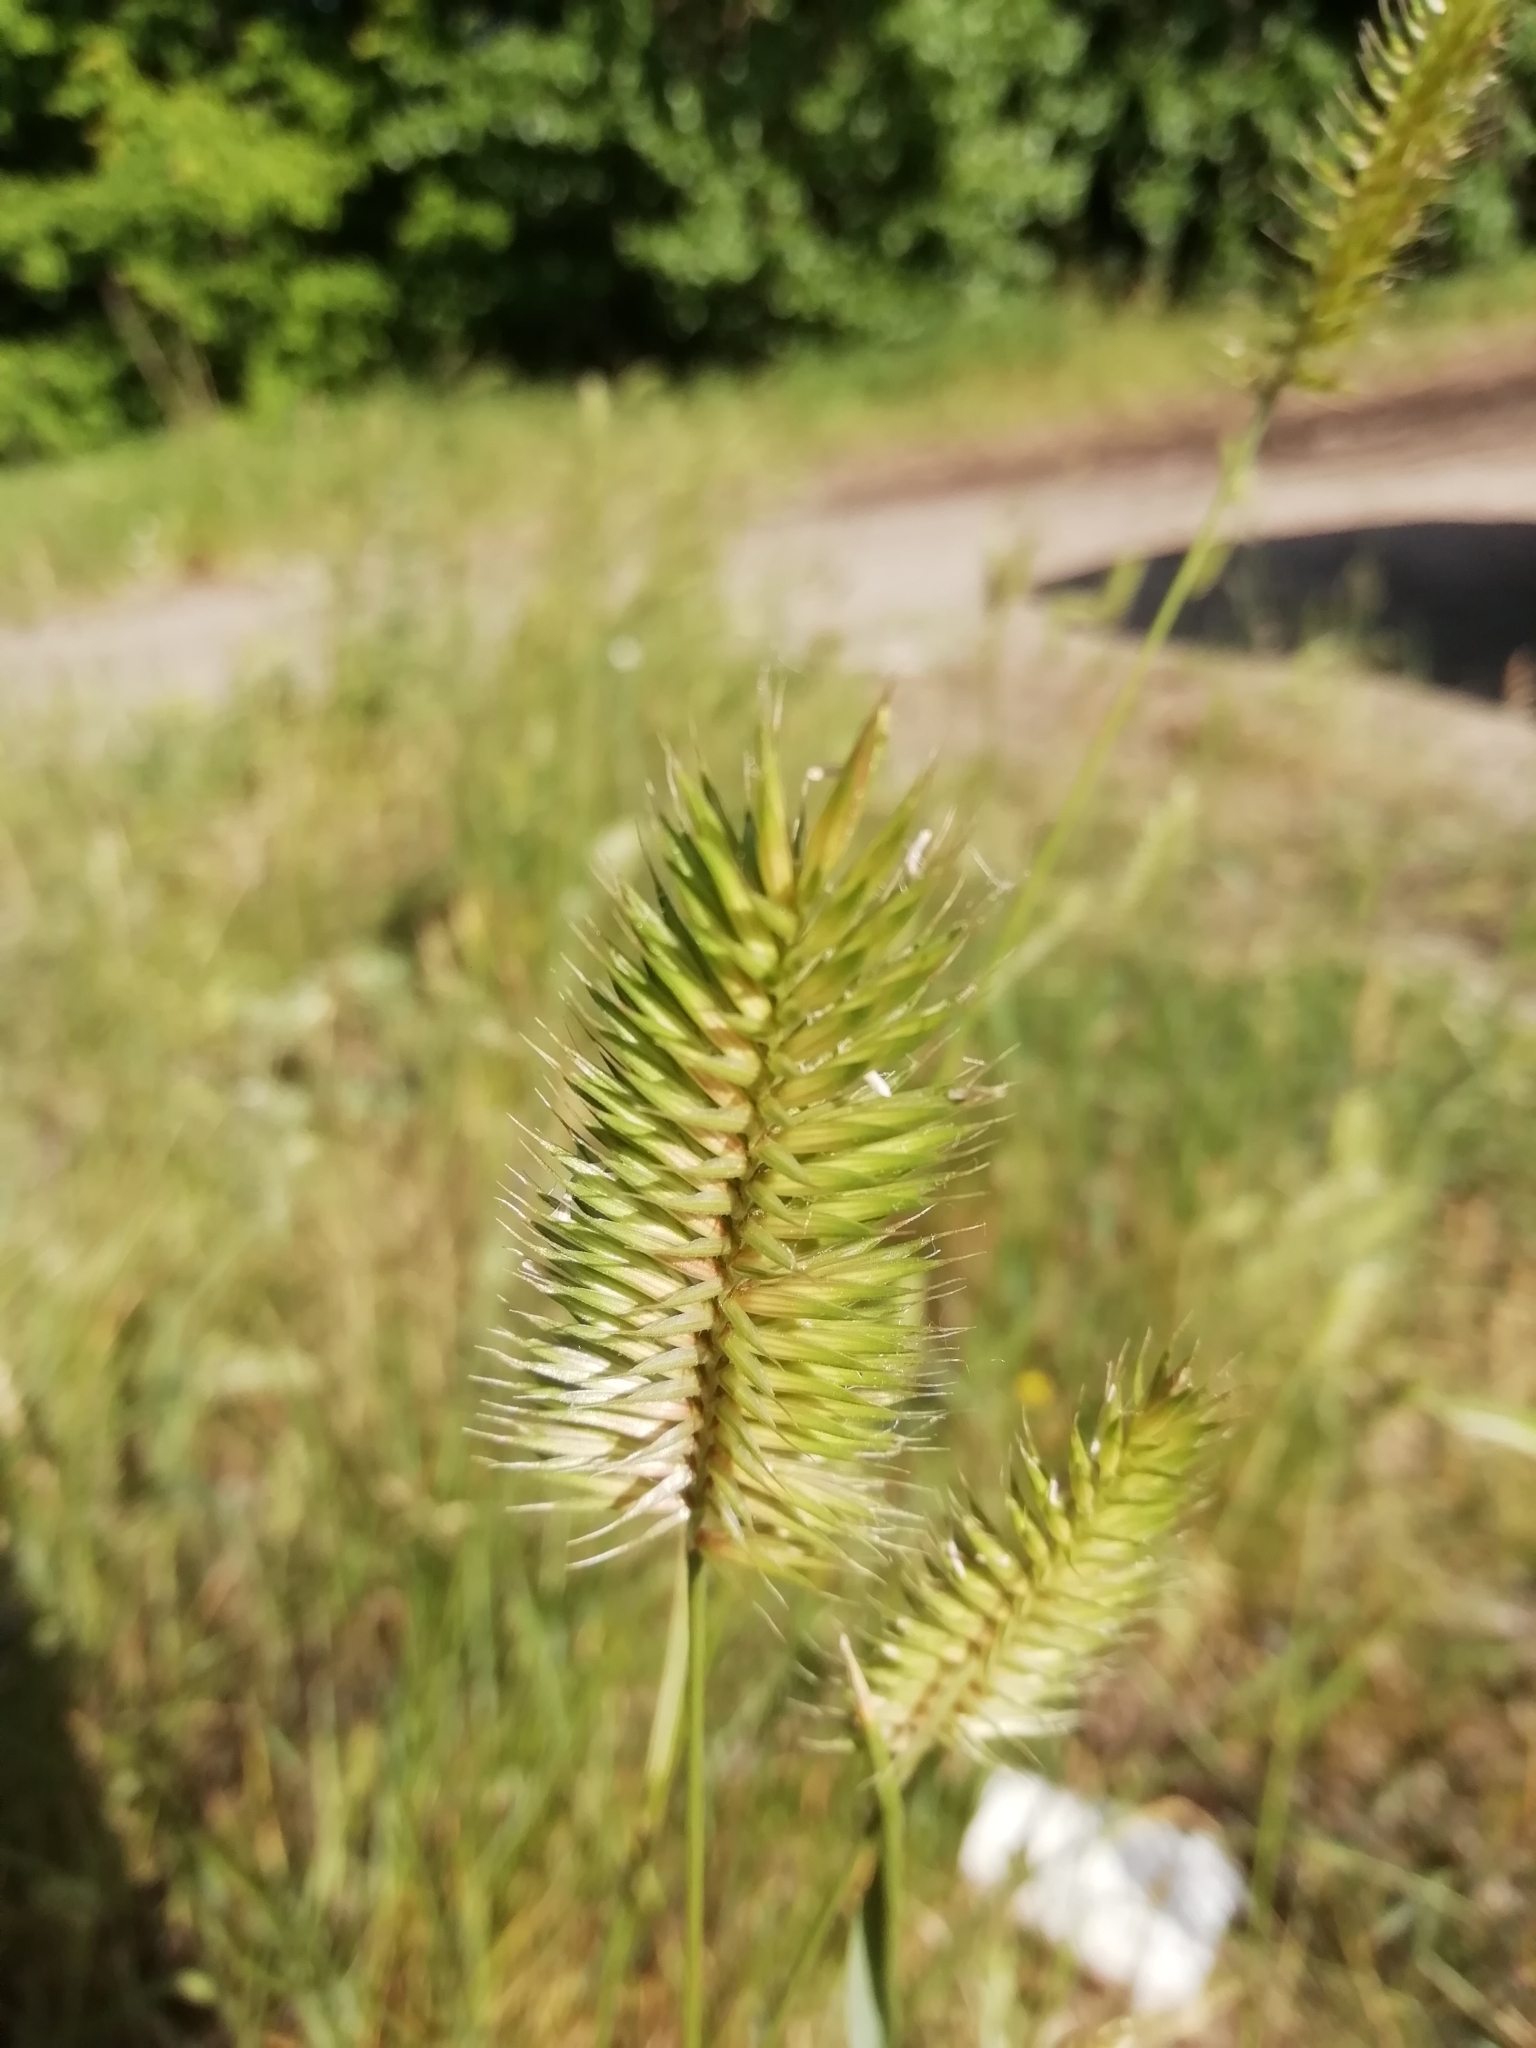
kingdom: Plantae
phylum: Tracheophyta
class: Liliopsida
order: Poales
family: Poaceae
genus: Agropyron
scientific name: Agropyron cristatum
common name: Crested wheatgrass
